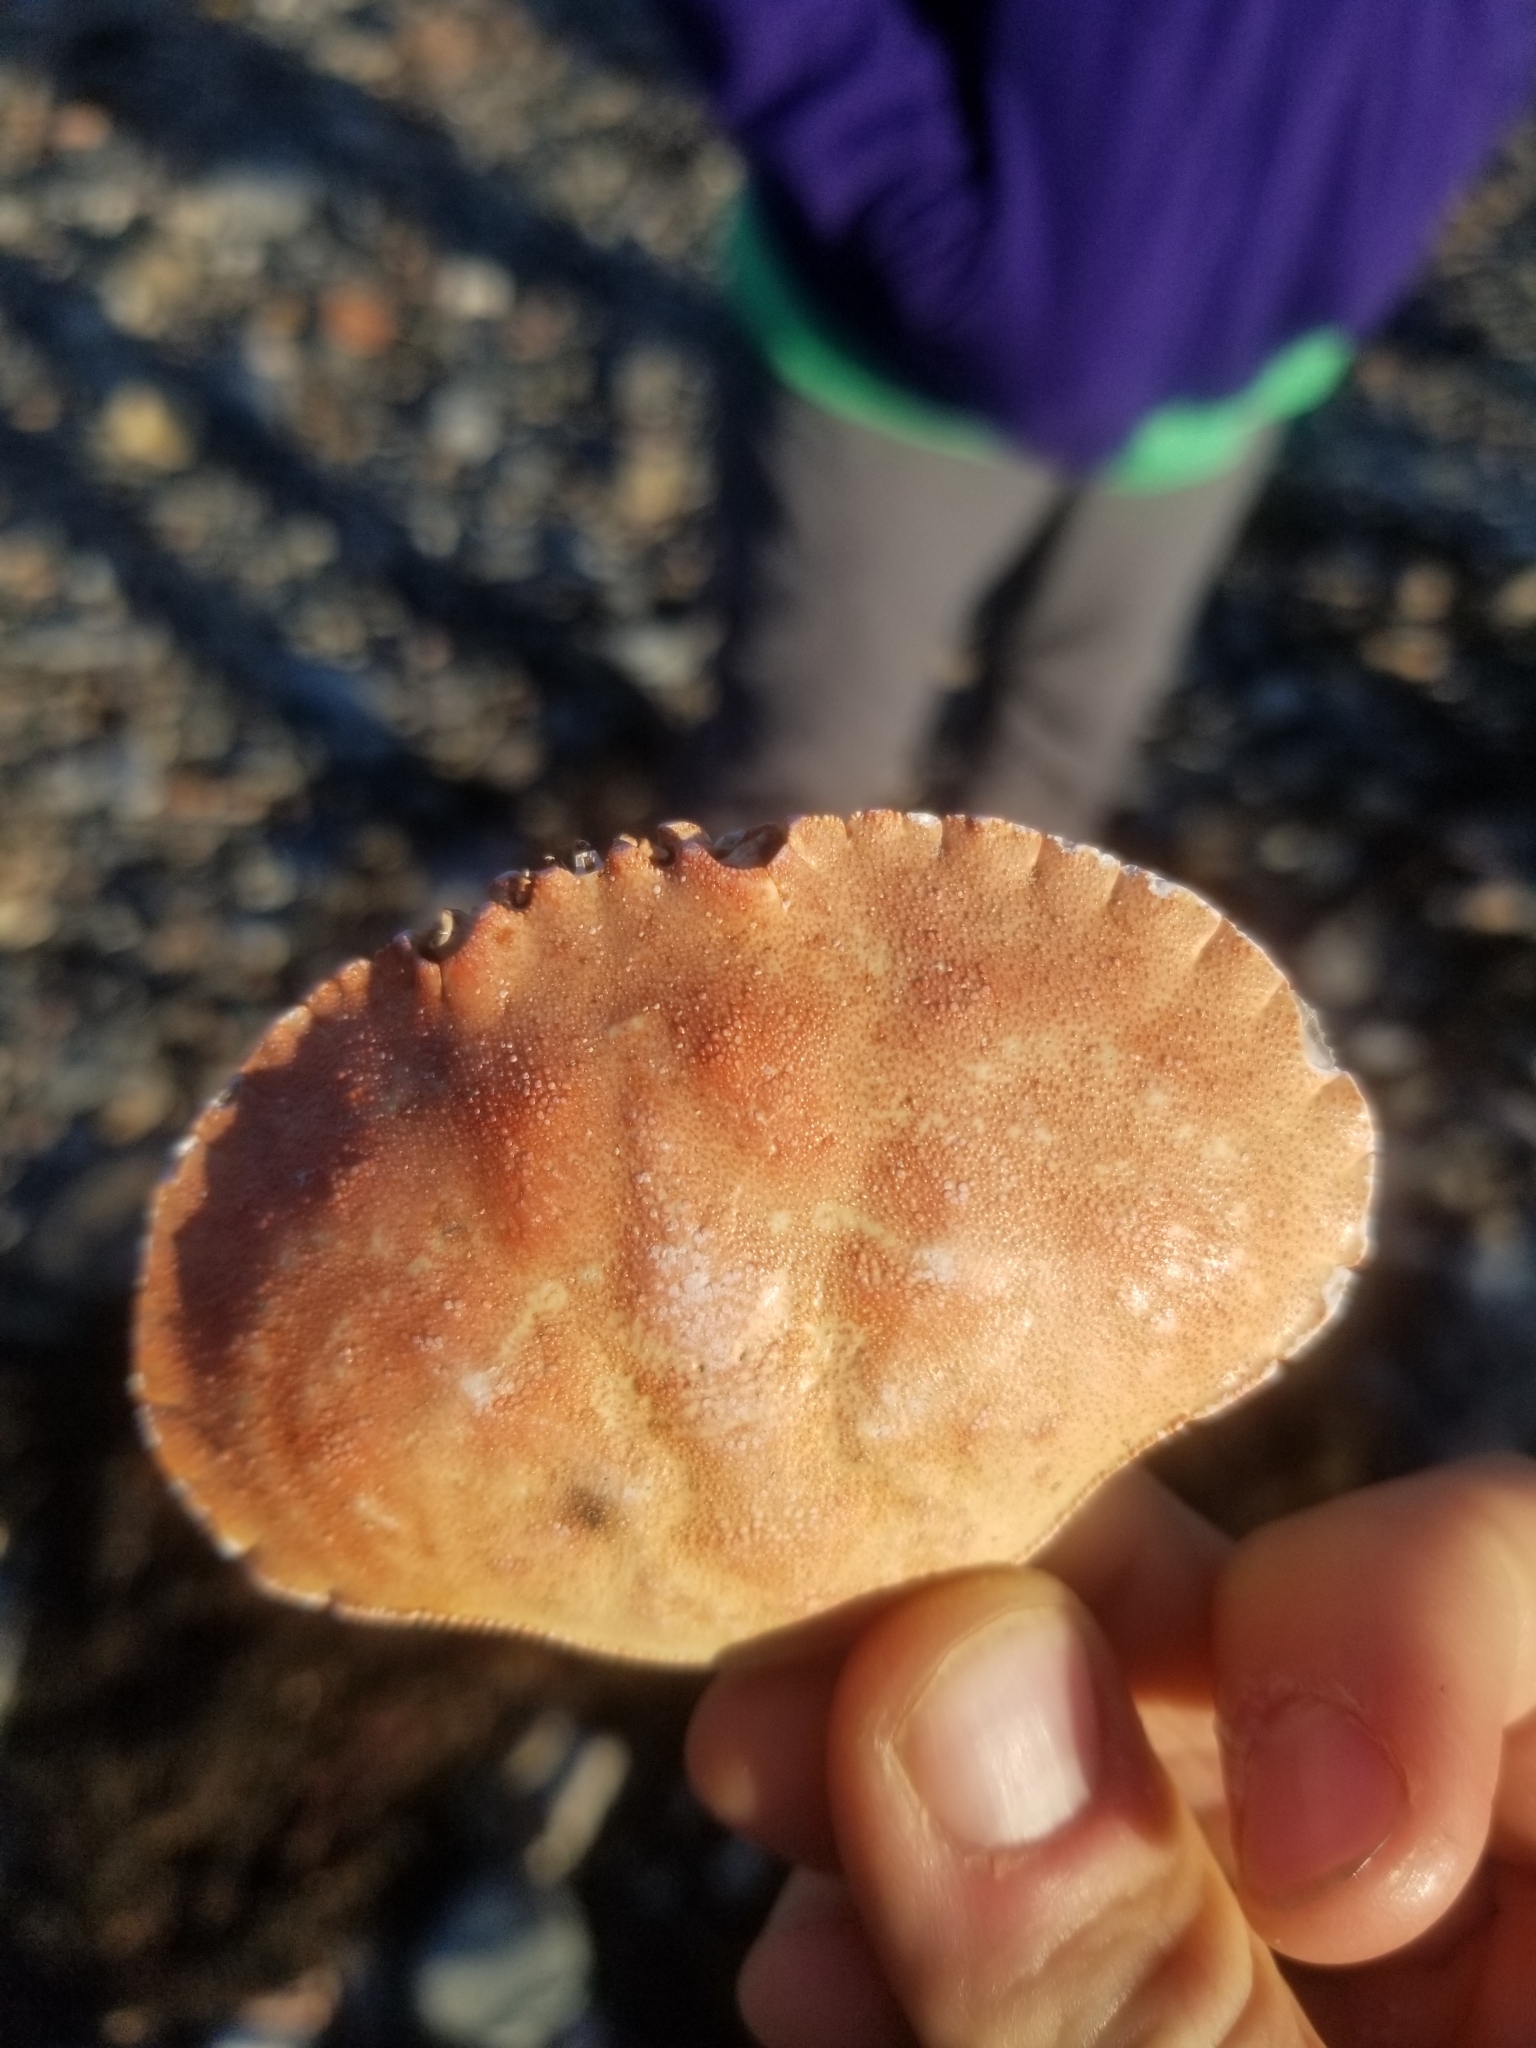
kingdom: Animalia
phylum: Arthropoda
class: Malacostraca
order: Decapoda
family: Cancridae
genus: Cancer
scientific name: Cancer borealis
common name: Jonah crab
